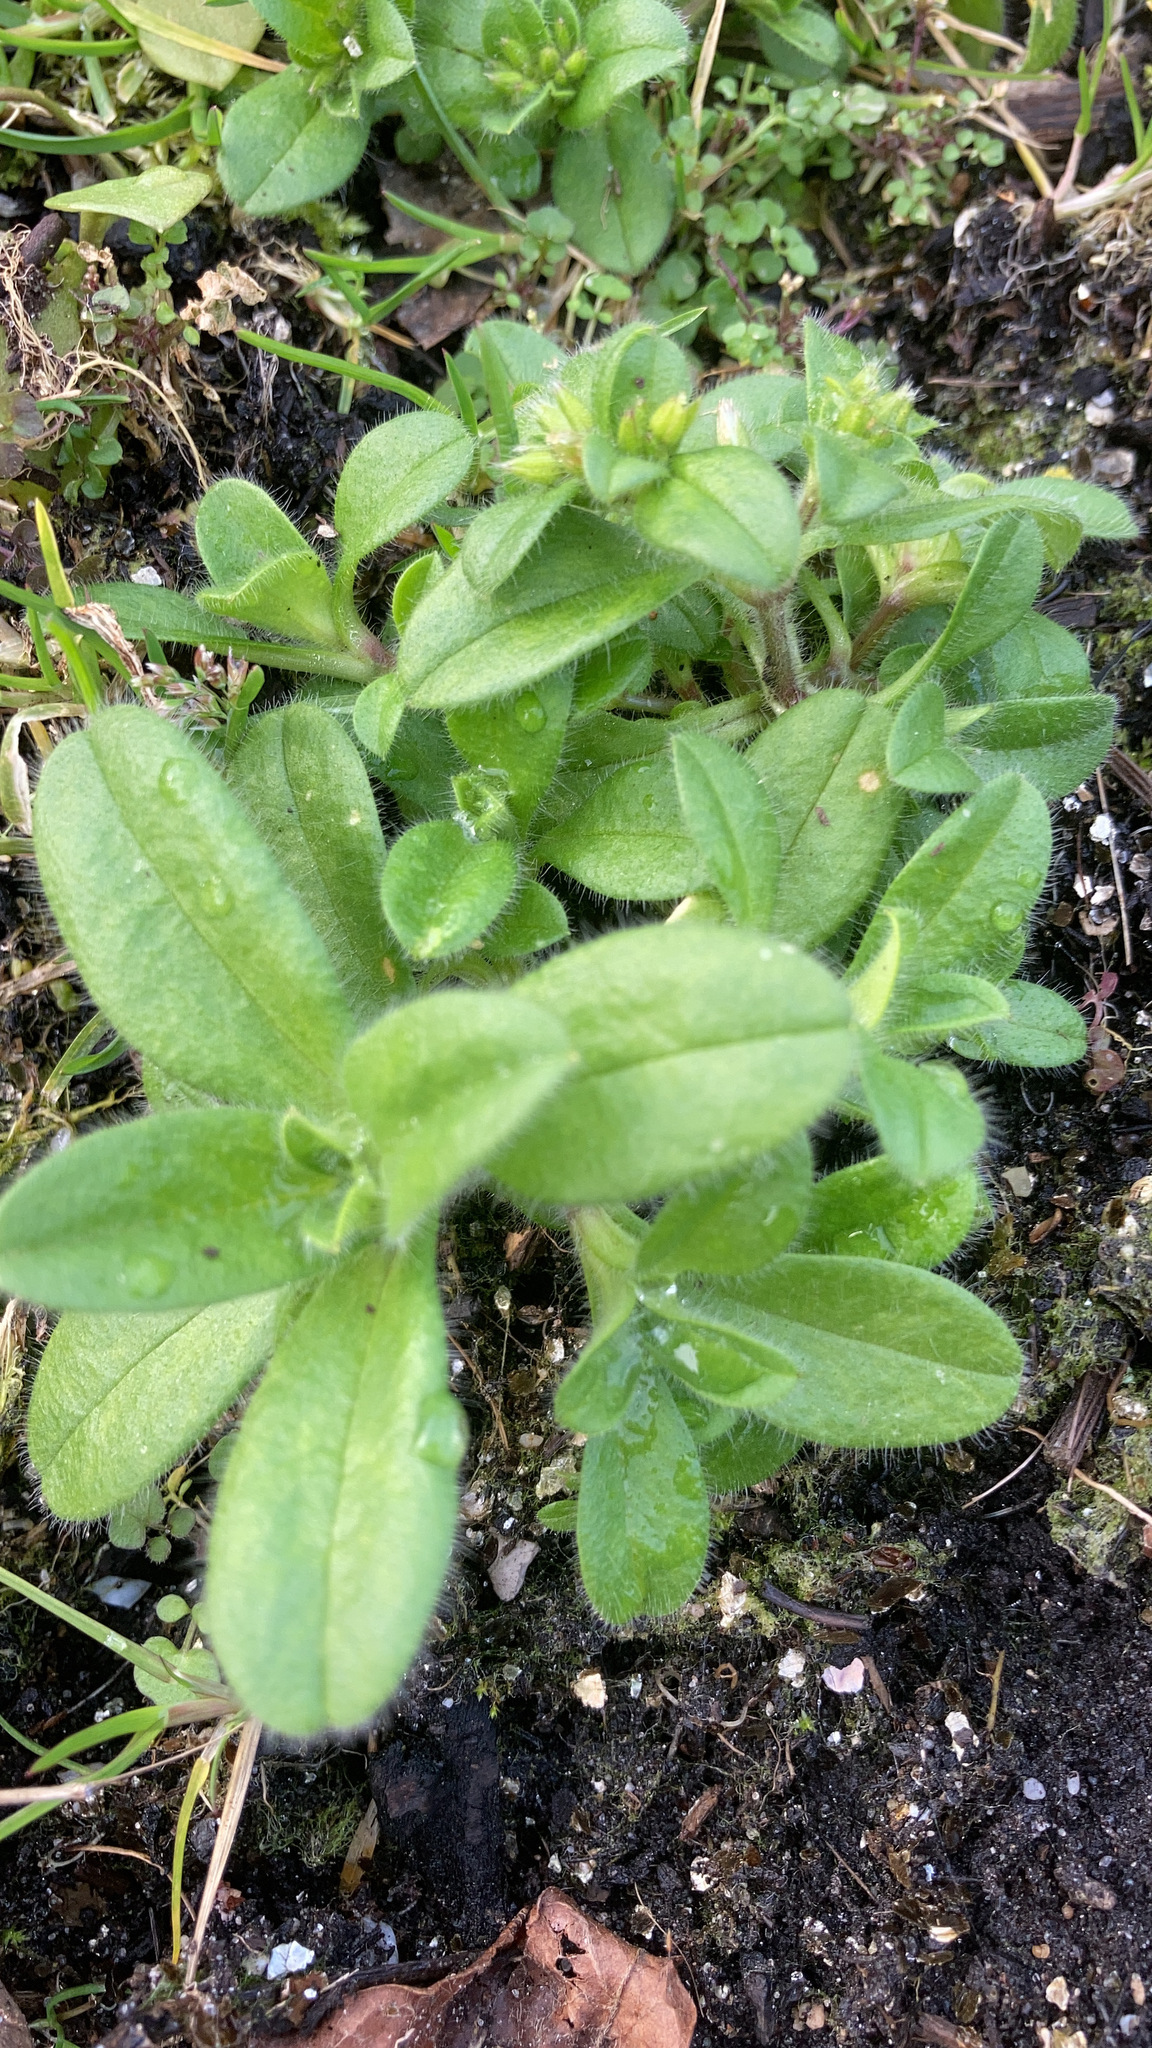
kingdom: Plantae
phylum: Tracheophyta
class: Magnoliopsida
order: Caryophyllales
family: Caryophyllaceae
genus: Cerastium
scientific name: Cerastium glomeratum
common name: Sticky chickweed
